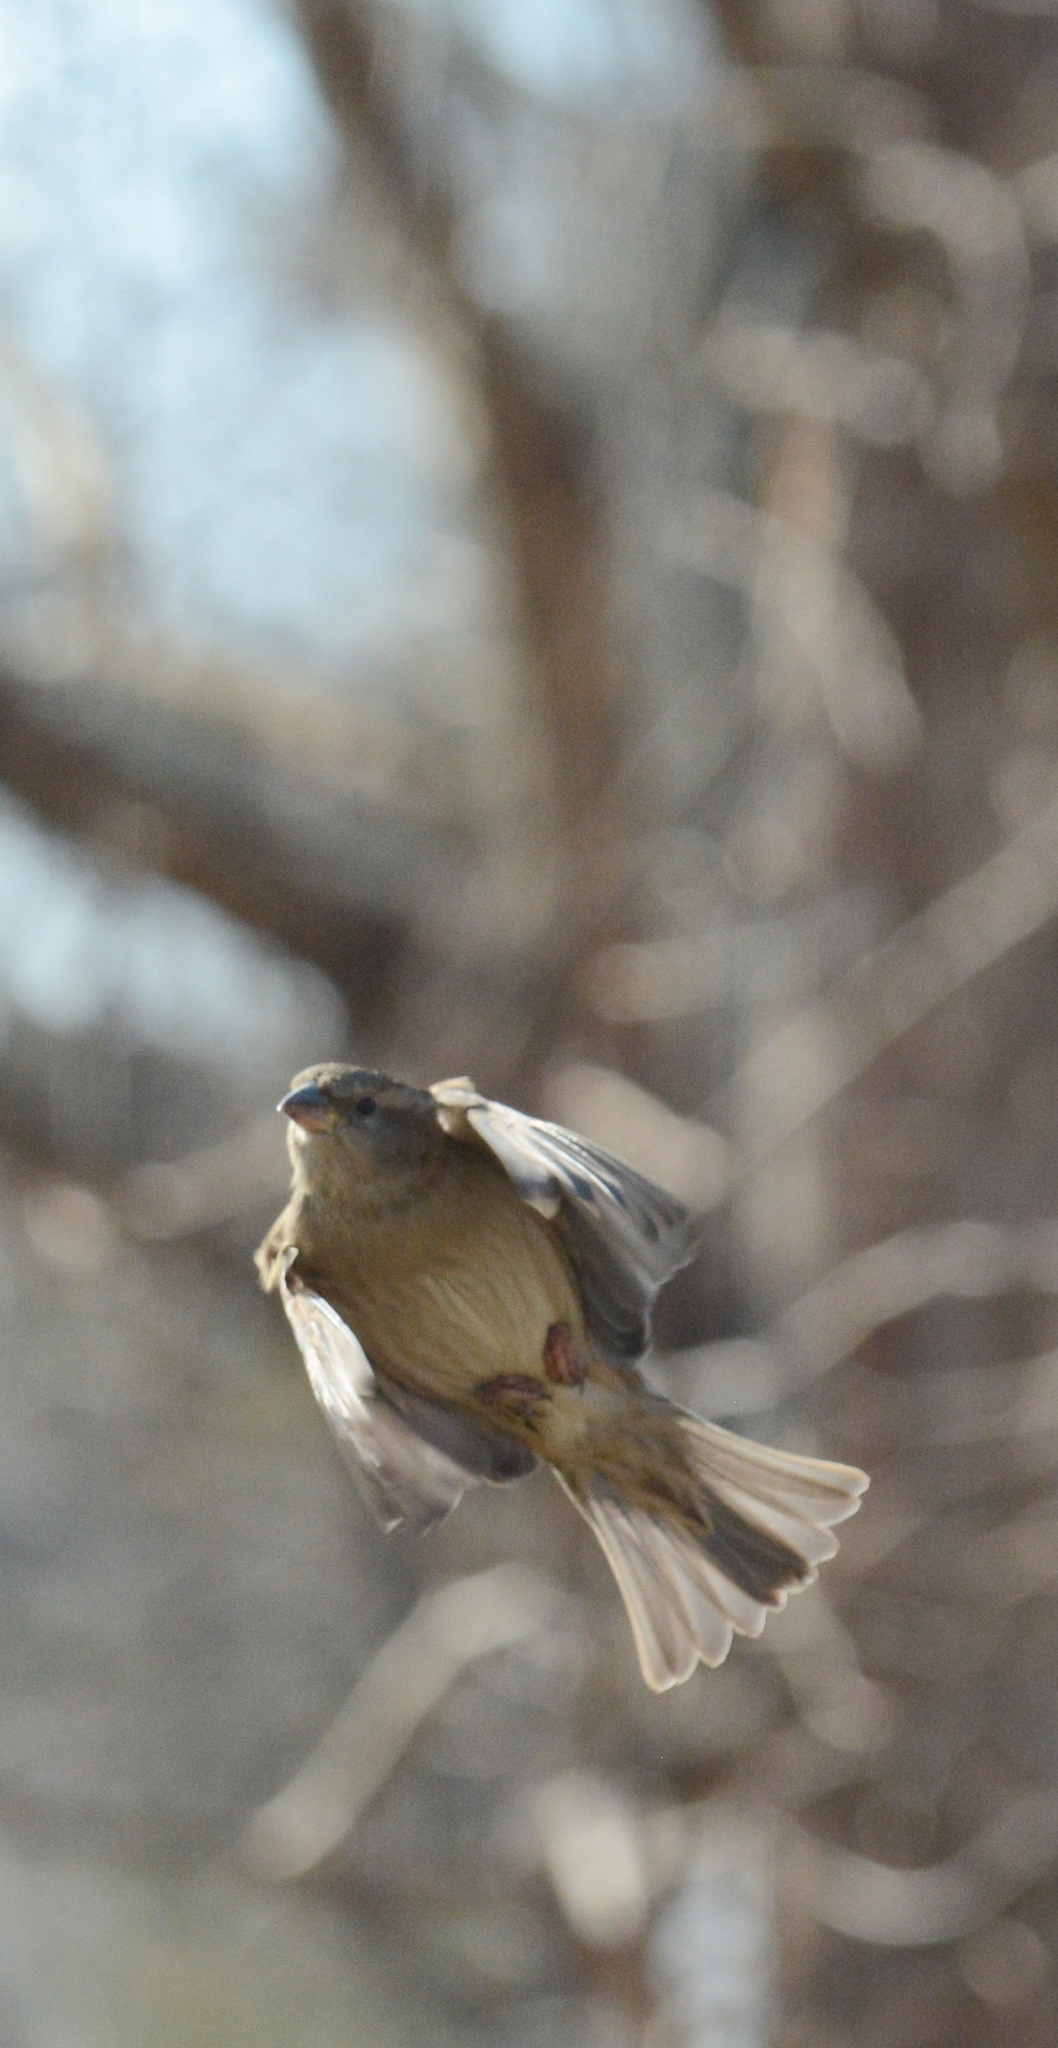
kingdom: Animalia
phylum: Chordata
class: Aves
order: Passeriformes
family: Passeridae
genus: Passer
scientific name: Passer domesticus
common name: House sparrow
